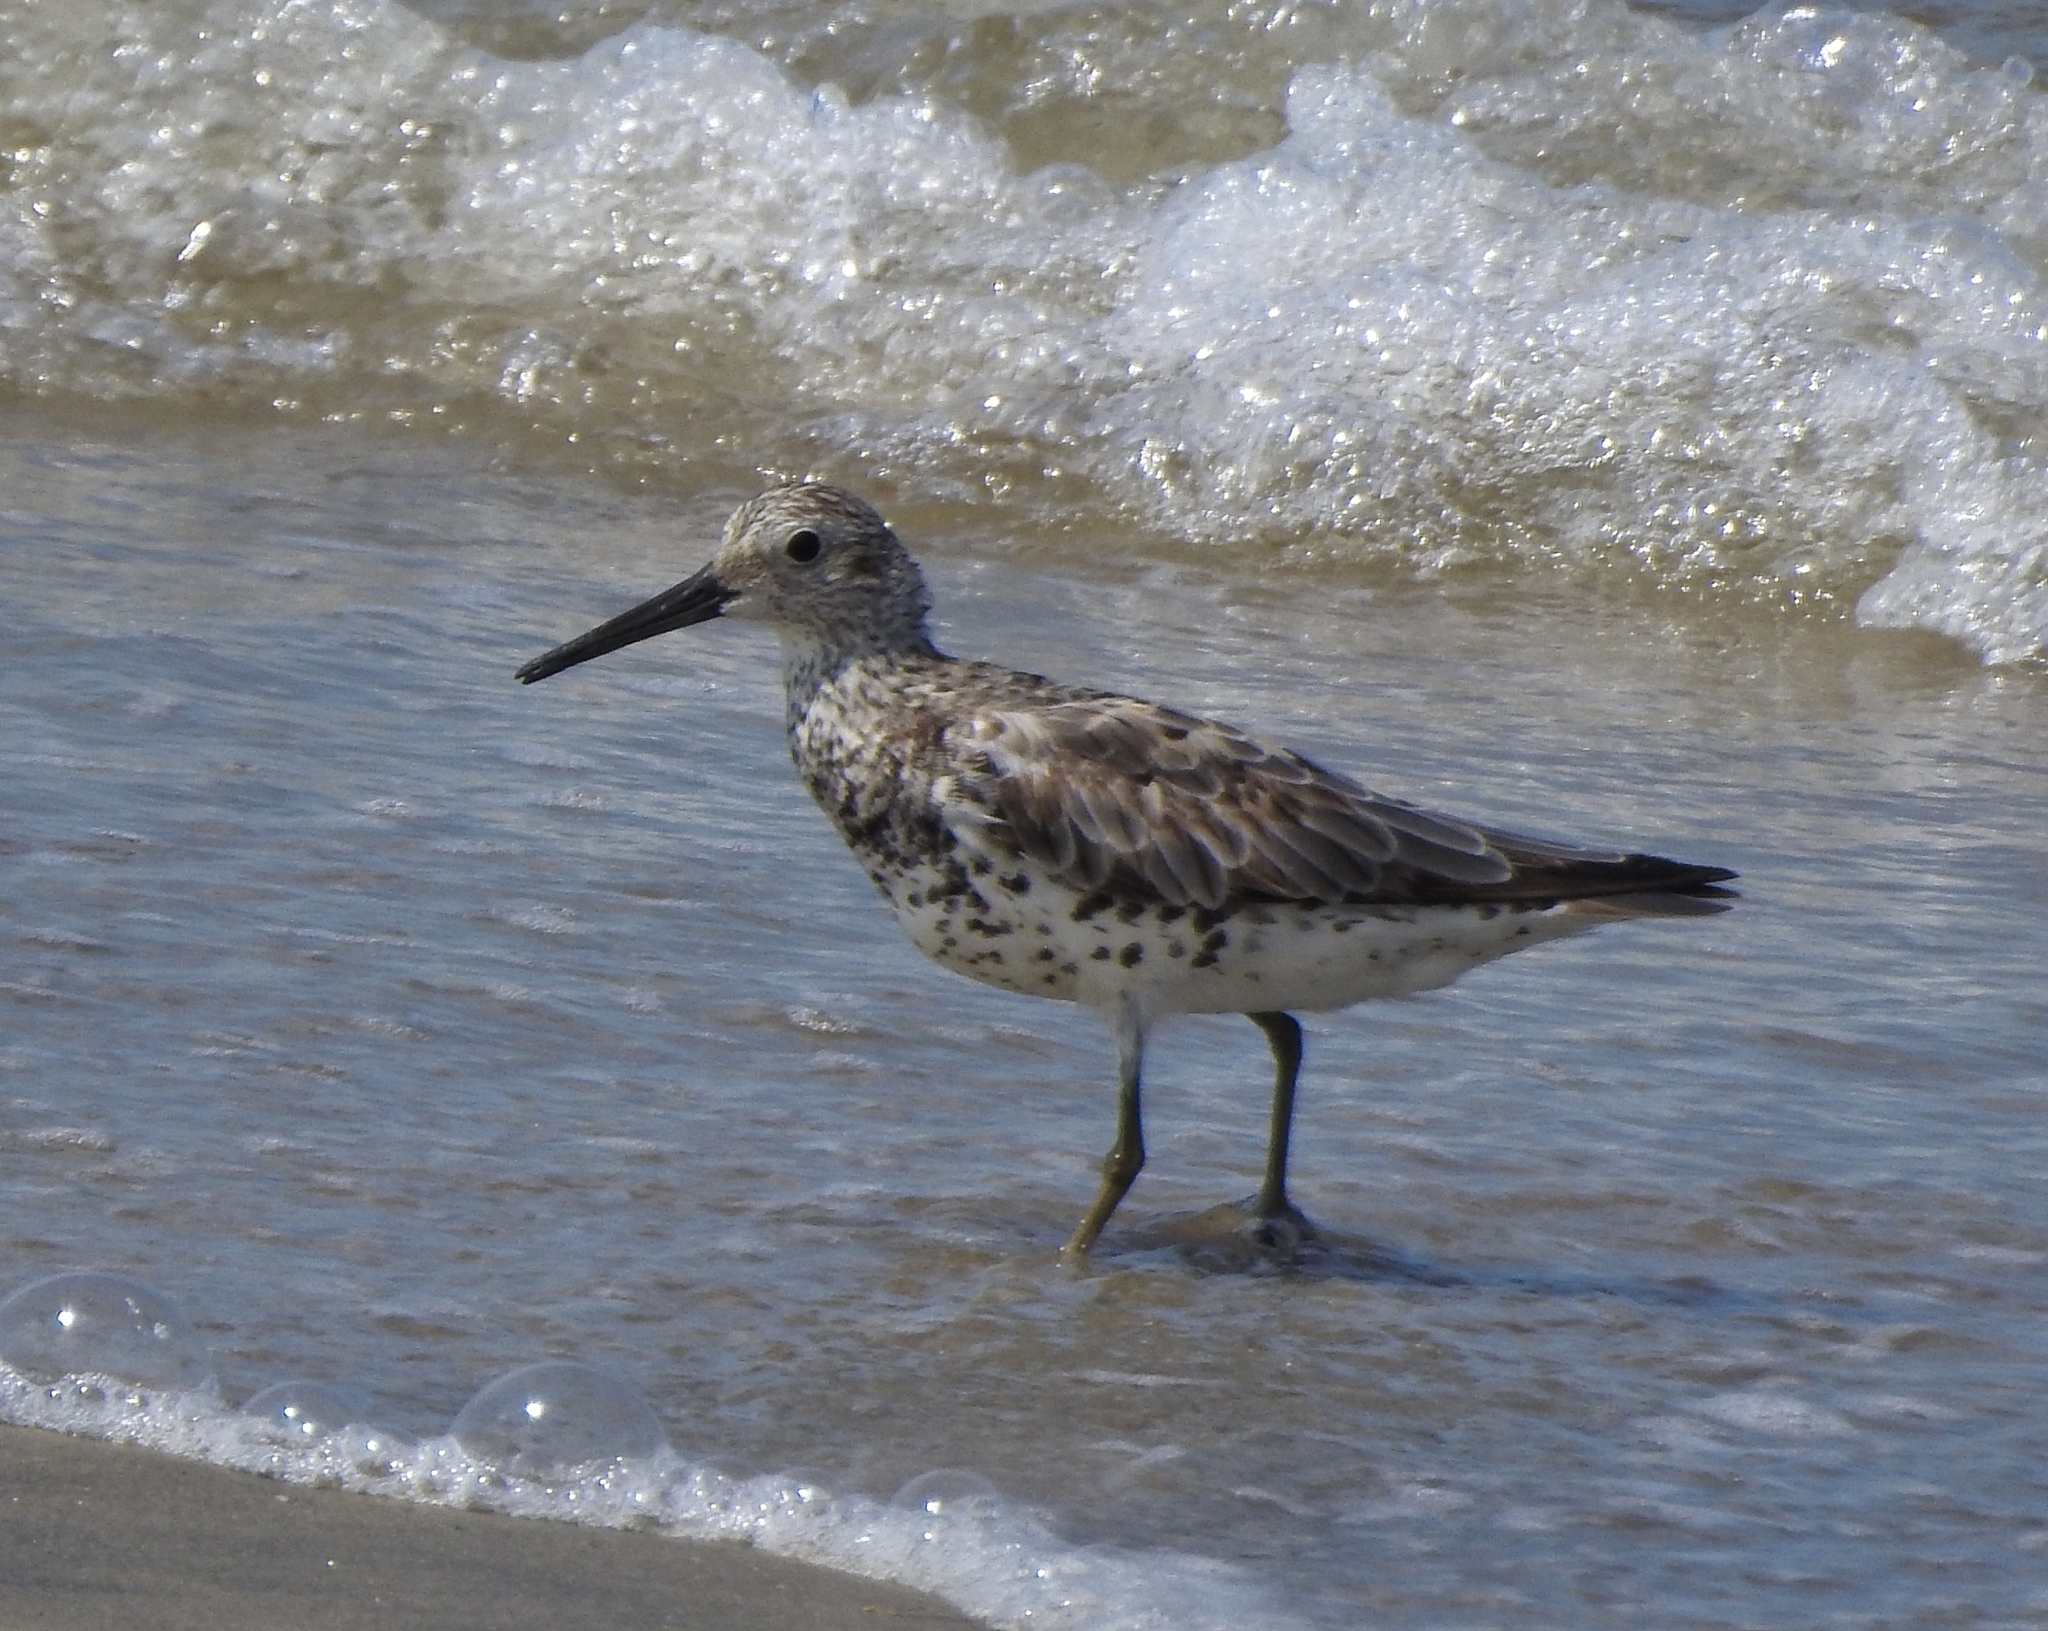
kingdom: Animalia
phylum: Chordata
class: Aves
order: Charadriiformes
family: Scolopacidae
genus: Calidris
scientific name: Calidris tenuirostris
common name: Great knot
